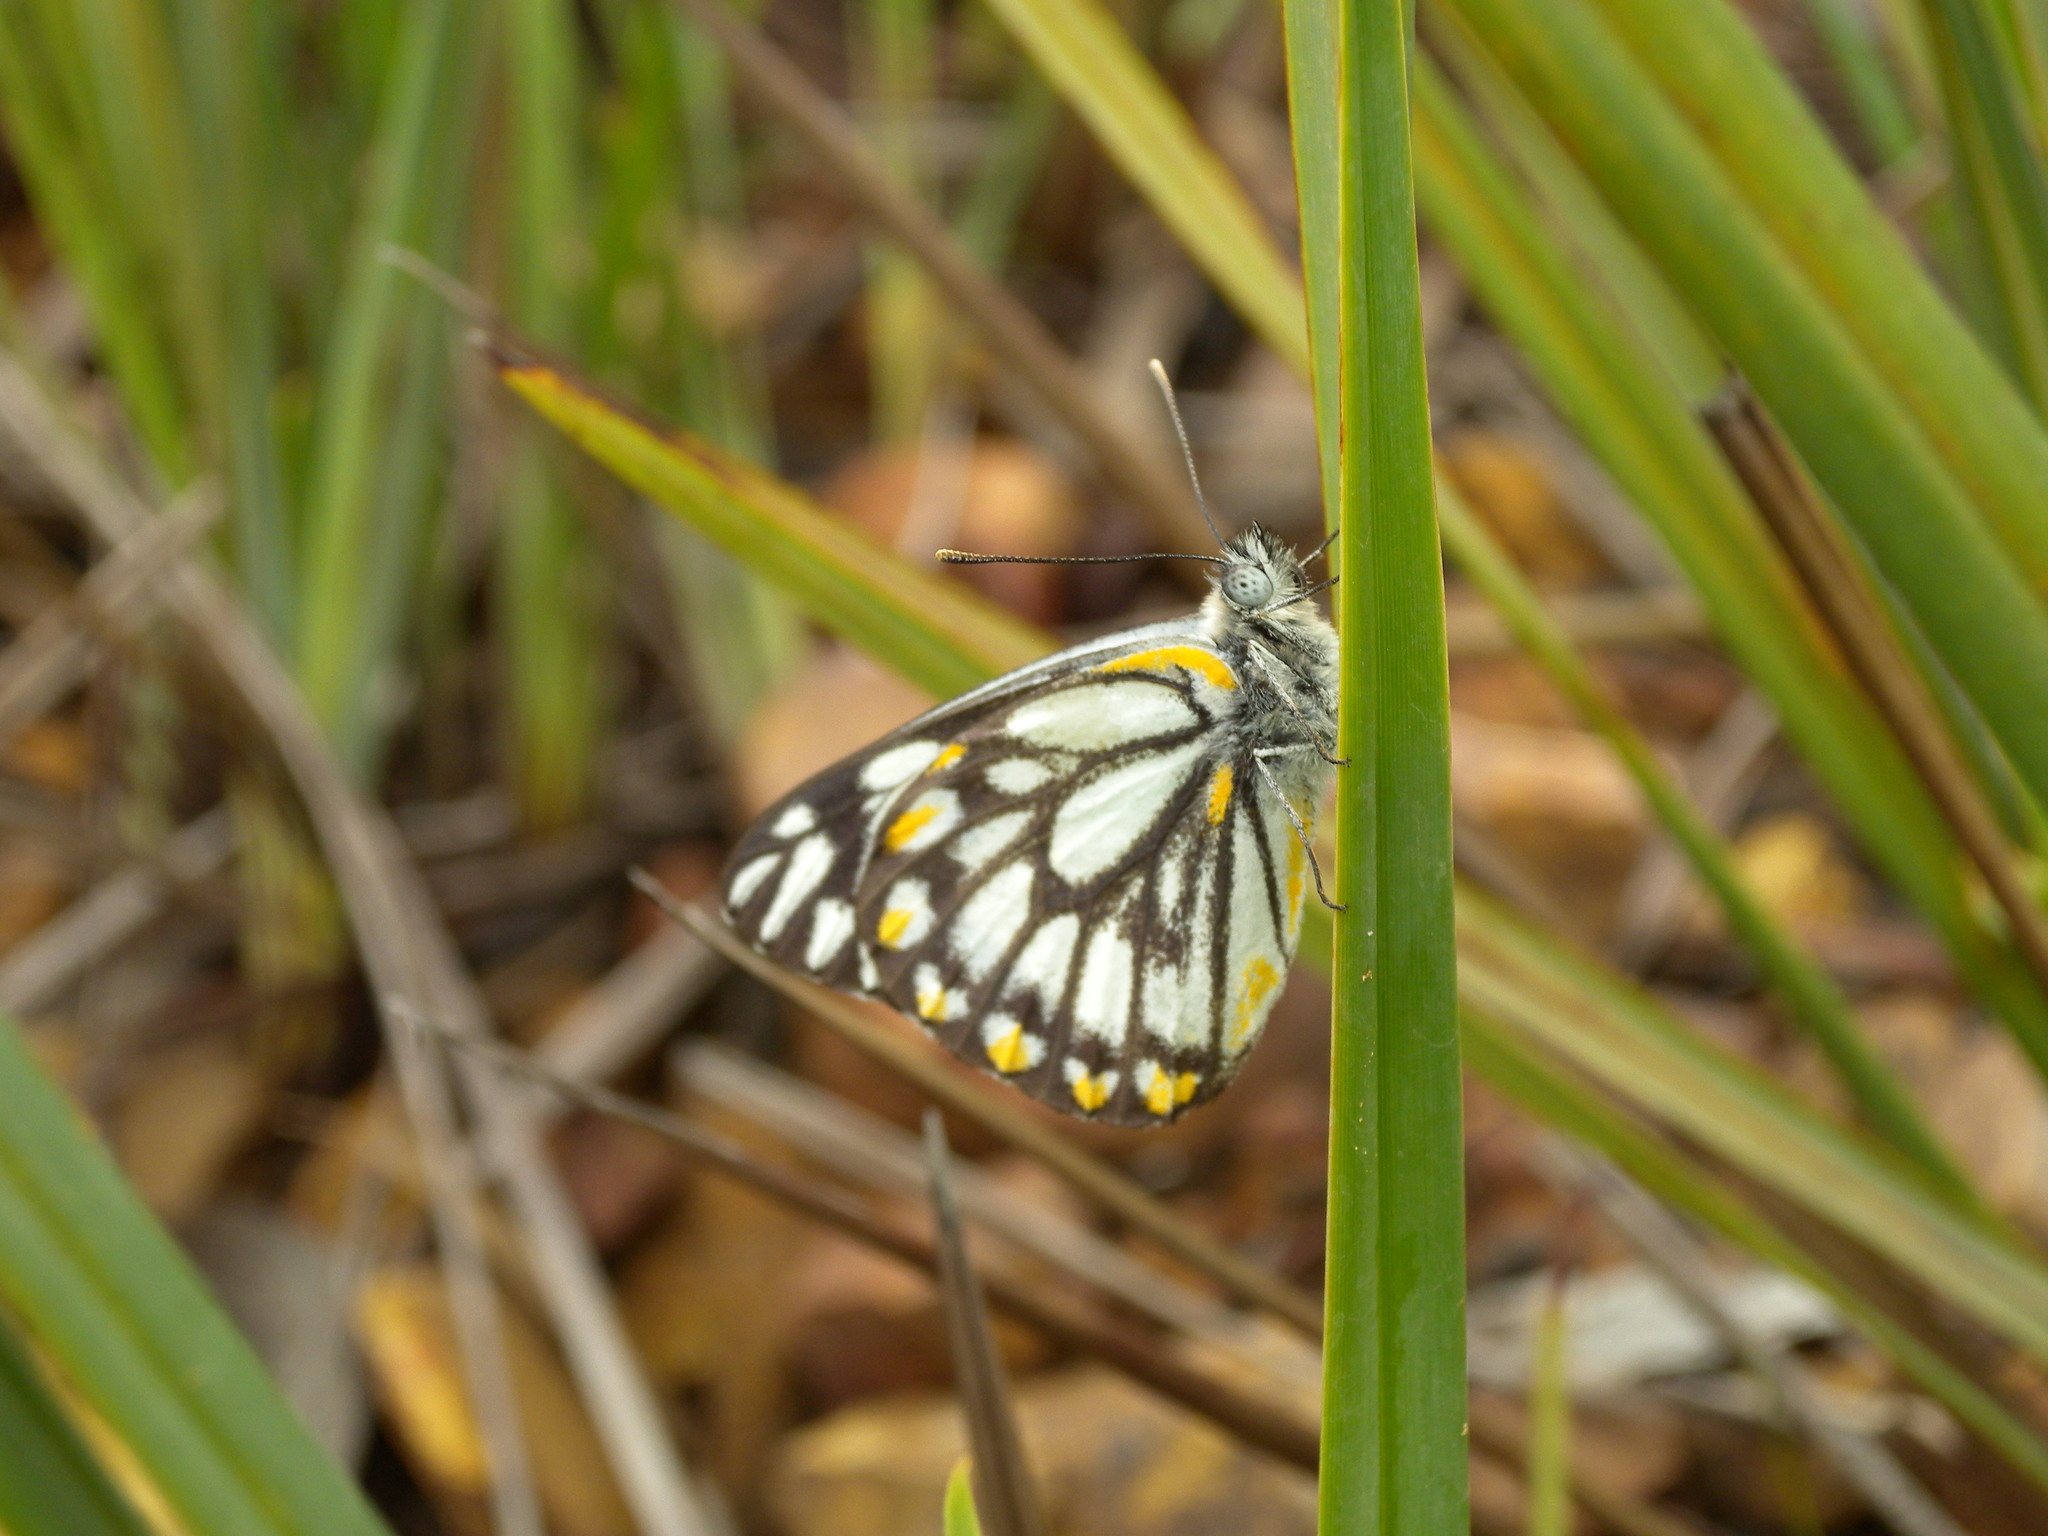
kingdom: Animalia
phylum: Arthropoda
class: Insecta
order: Lepidoptera
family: Pieridae
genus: Belenois
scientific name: Belenois java
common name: Caper white
